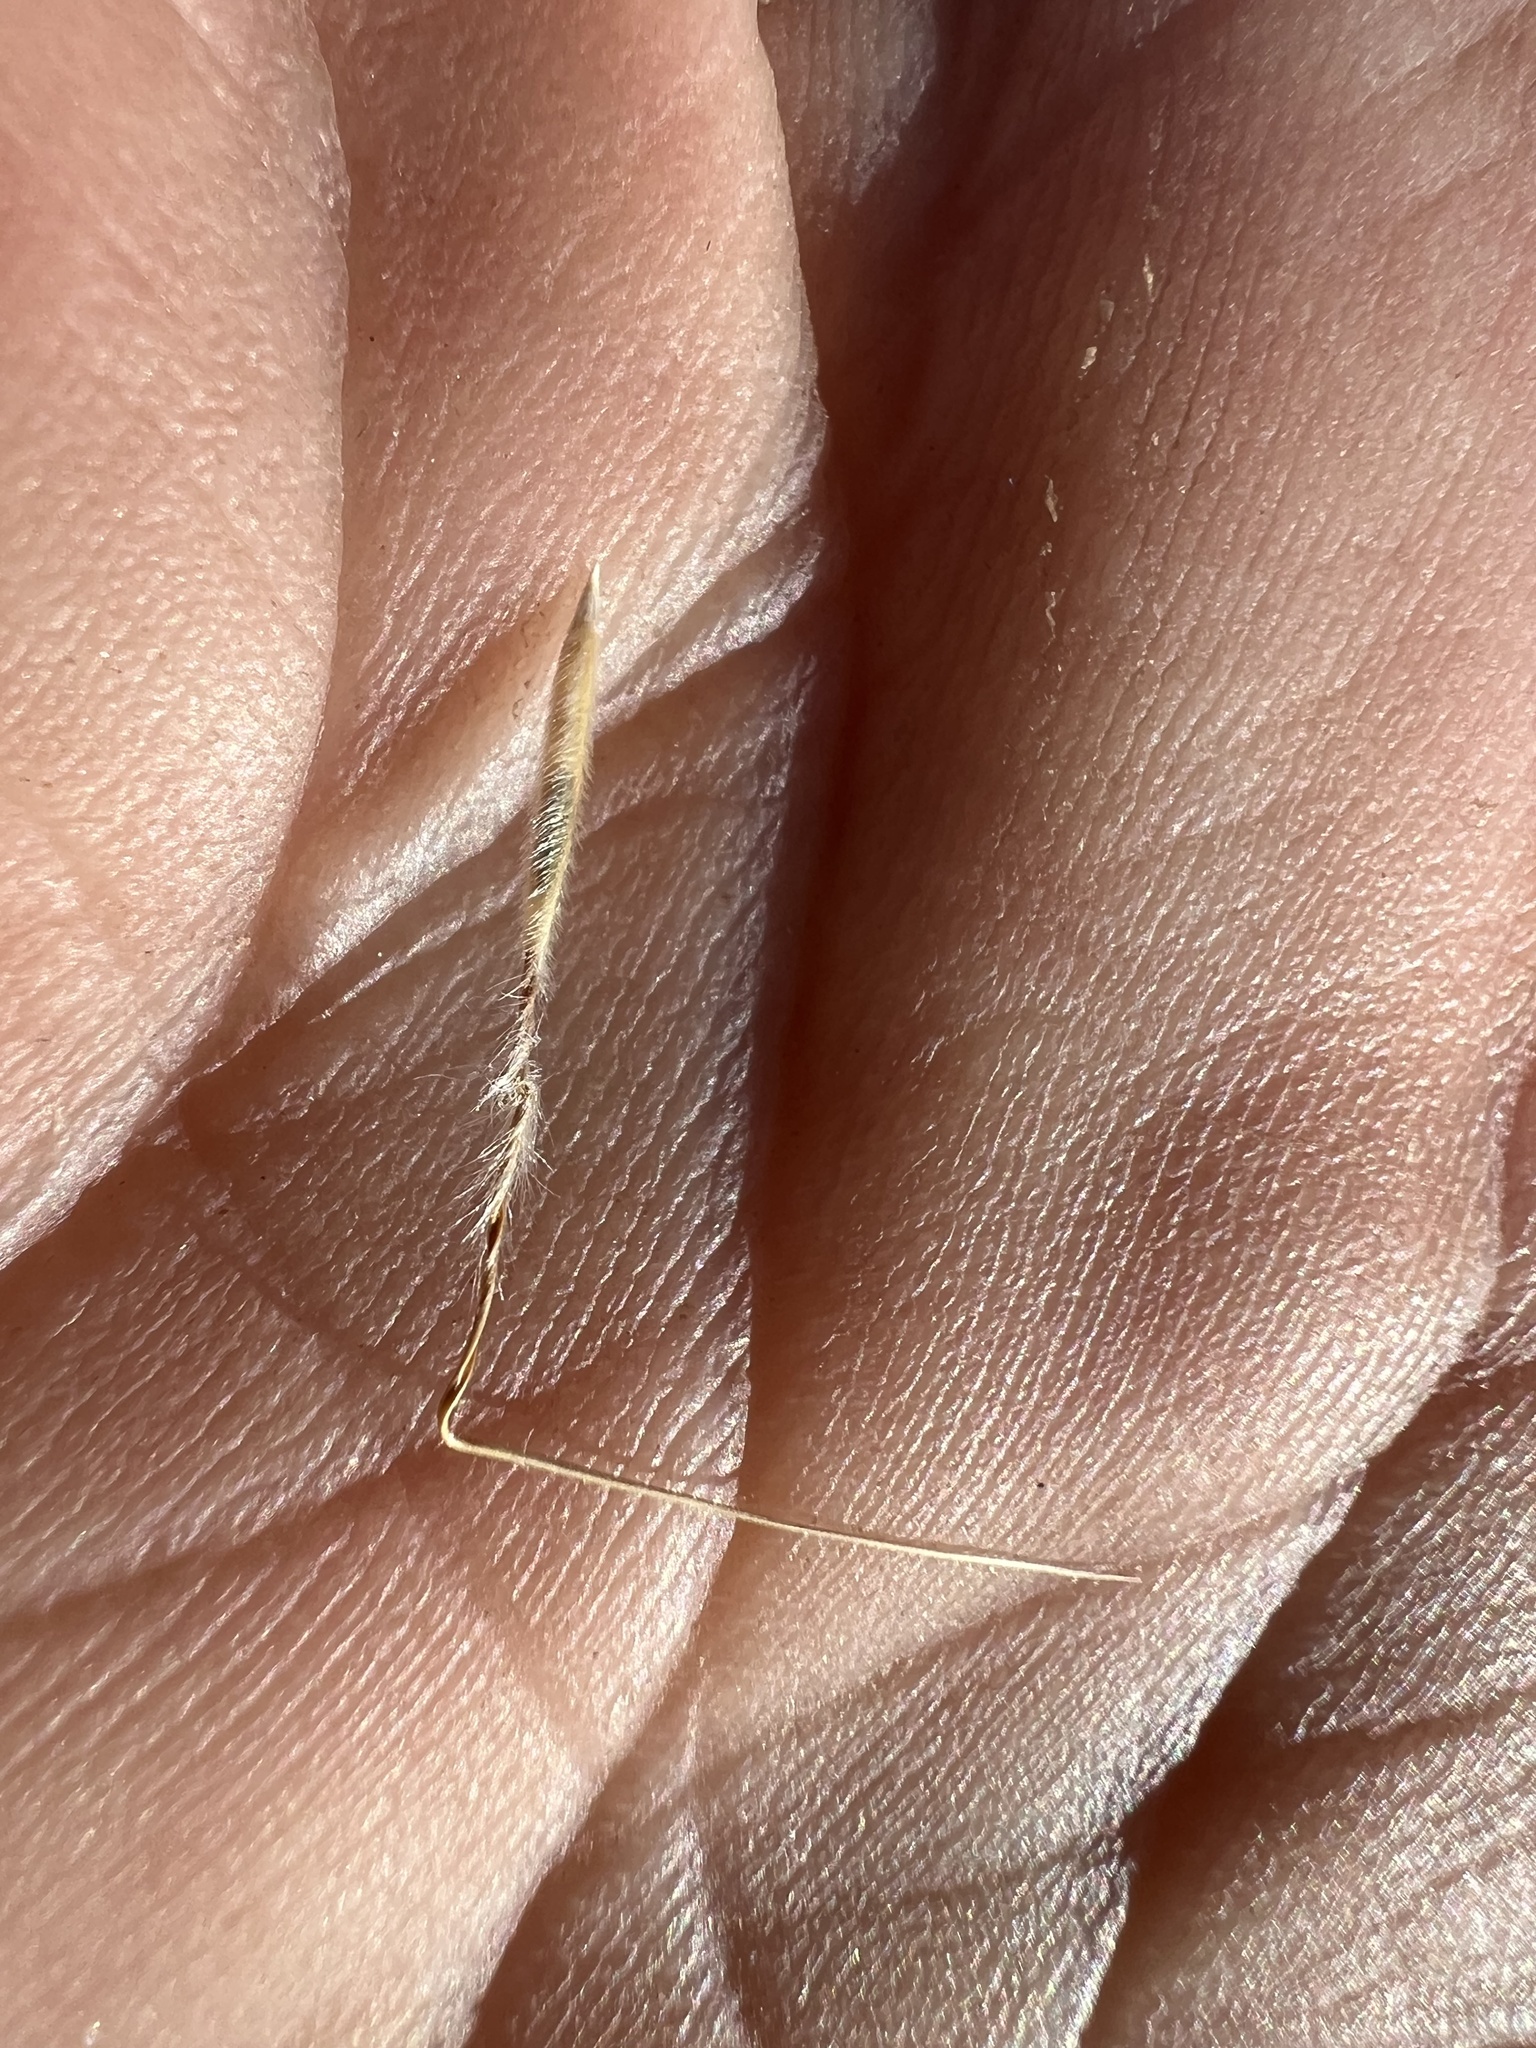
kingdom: Plantae
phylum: Tracheophyta
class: Liliopsida
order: Poales
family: Poaceae
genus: Pappostipa
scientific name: Pappostipa speciosa
